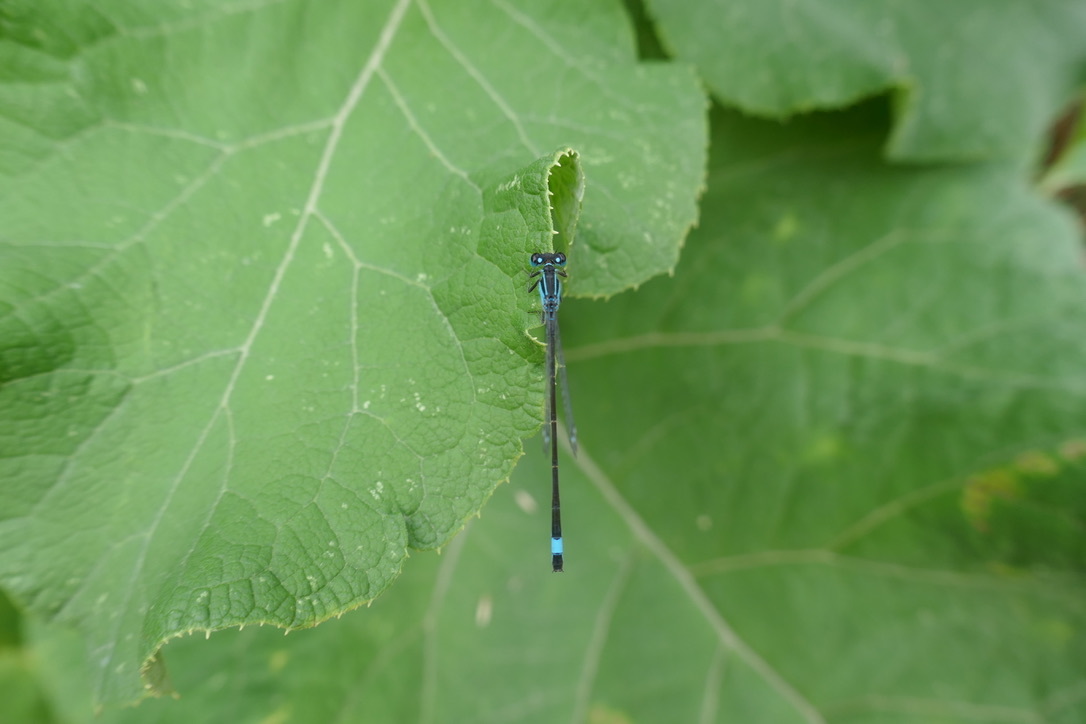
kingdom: Animalia
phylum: Arthropoda
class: Insecta
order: Odonata
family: Coenagrionidae
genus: Ischnura
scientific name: Ischnura elegans
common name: Blue-tailed damselfly
